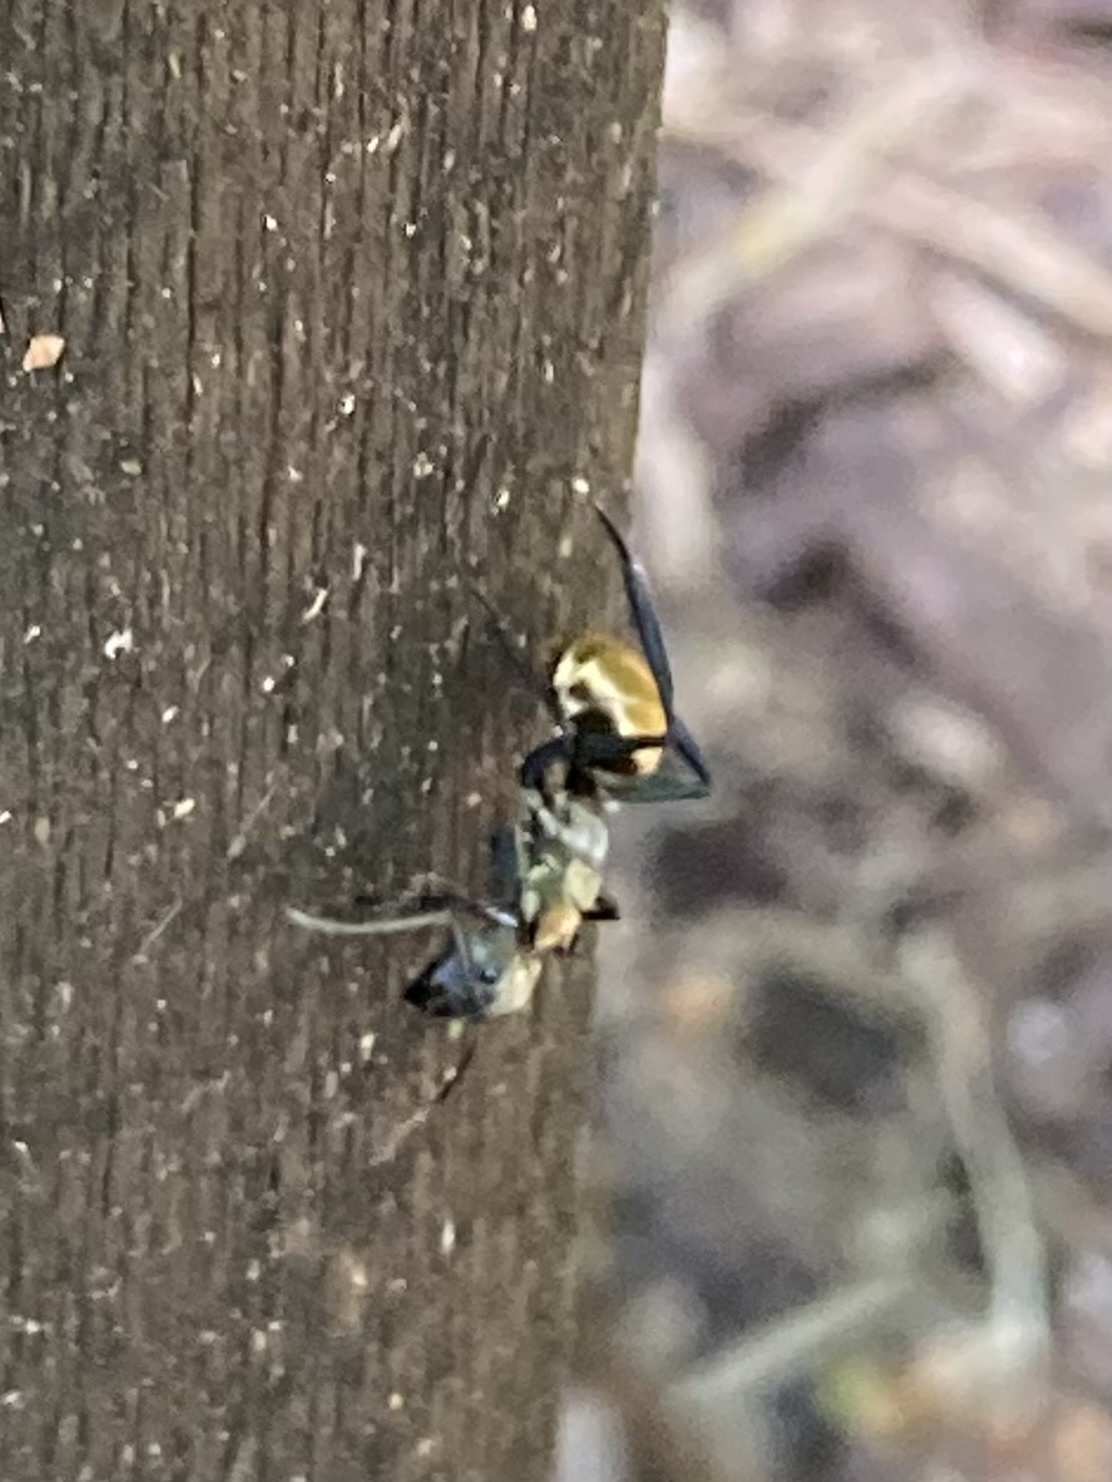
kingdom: Animalia
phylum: Arthropoda
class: Insecta
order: Hymenoptera
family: Formicidae
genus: Camponotus
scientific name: Camponotus sericeiventris
